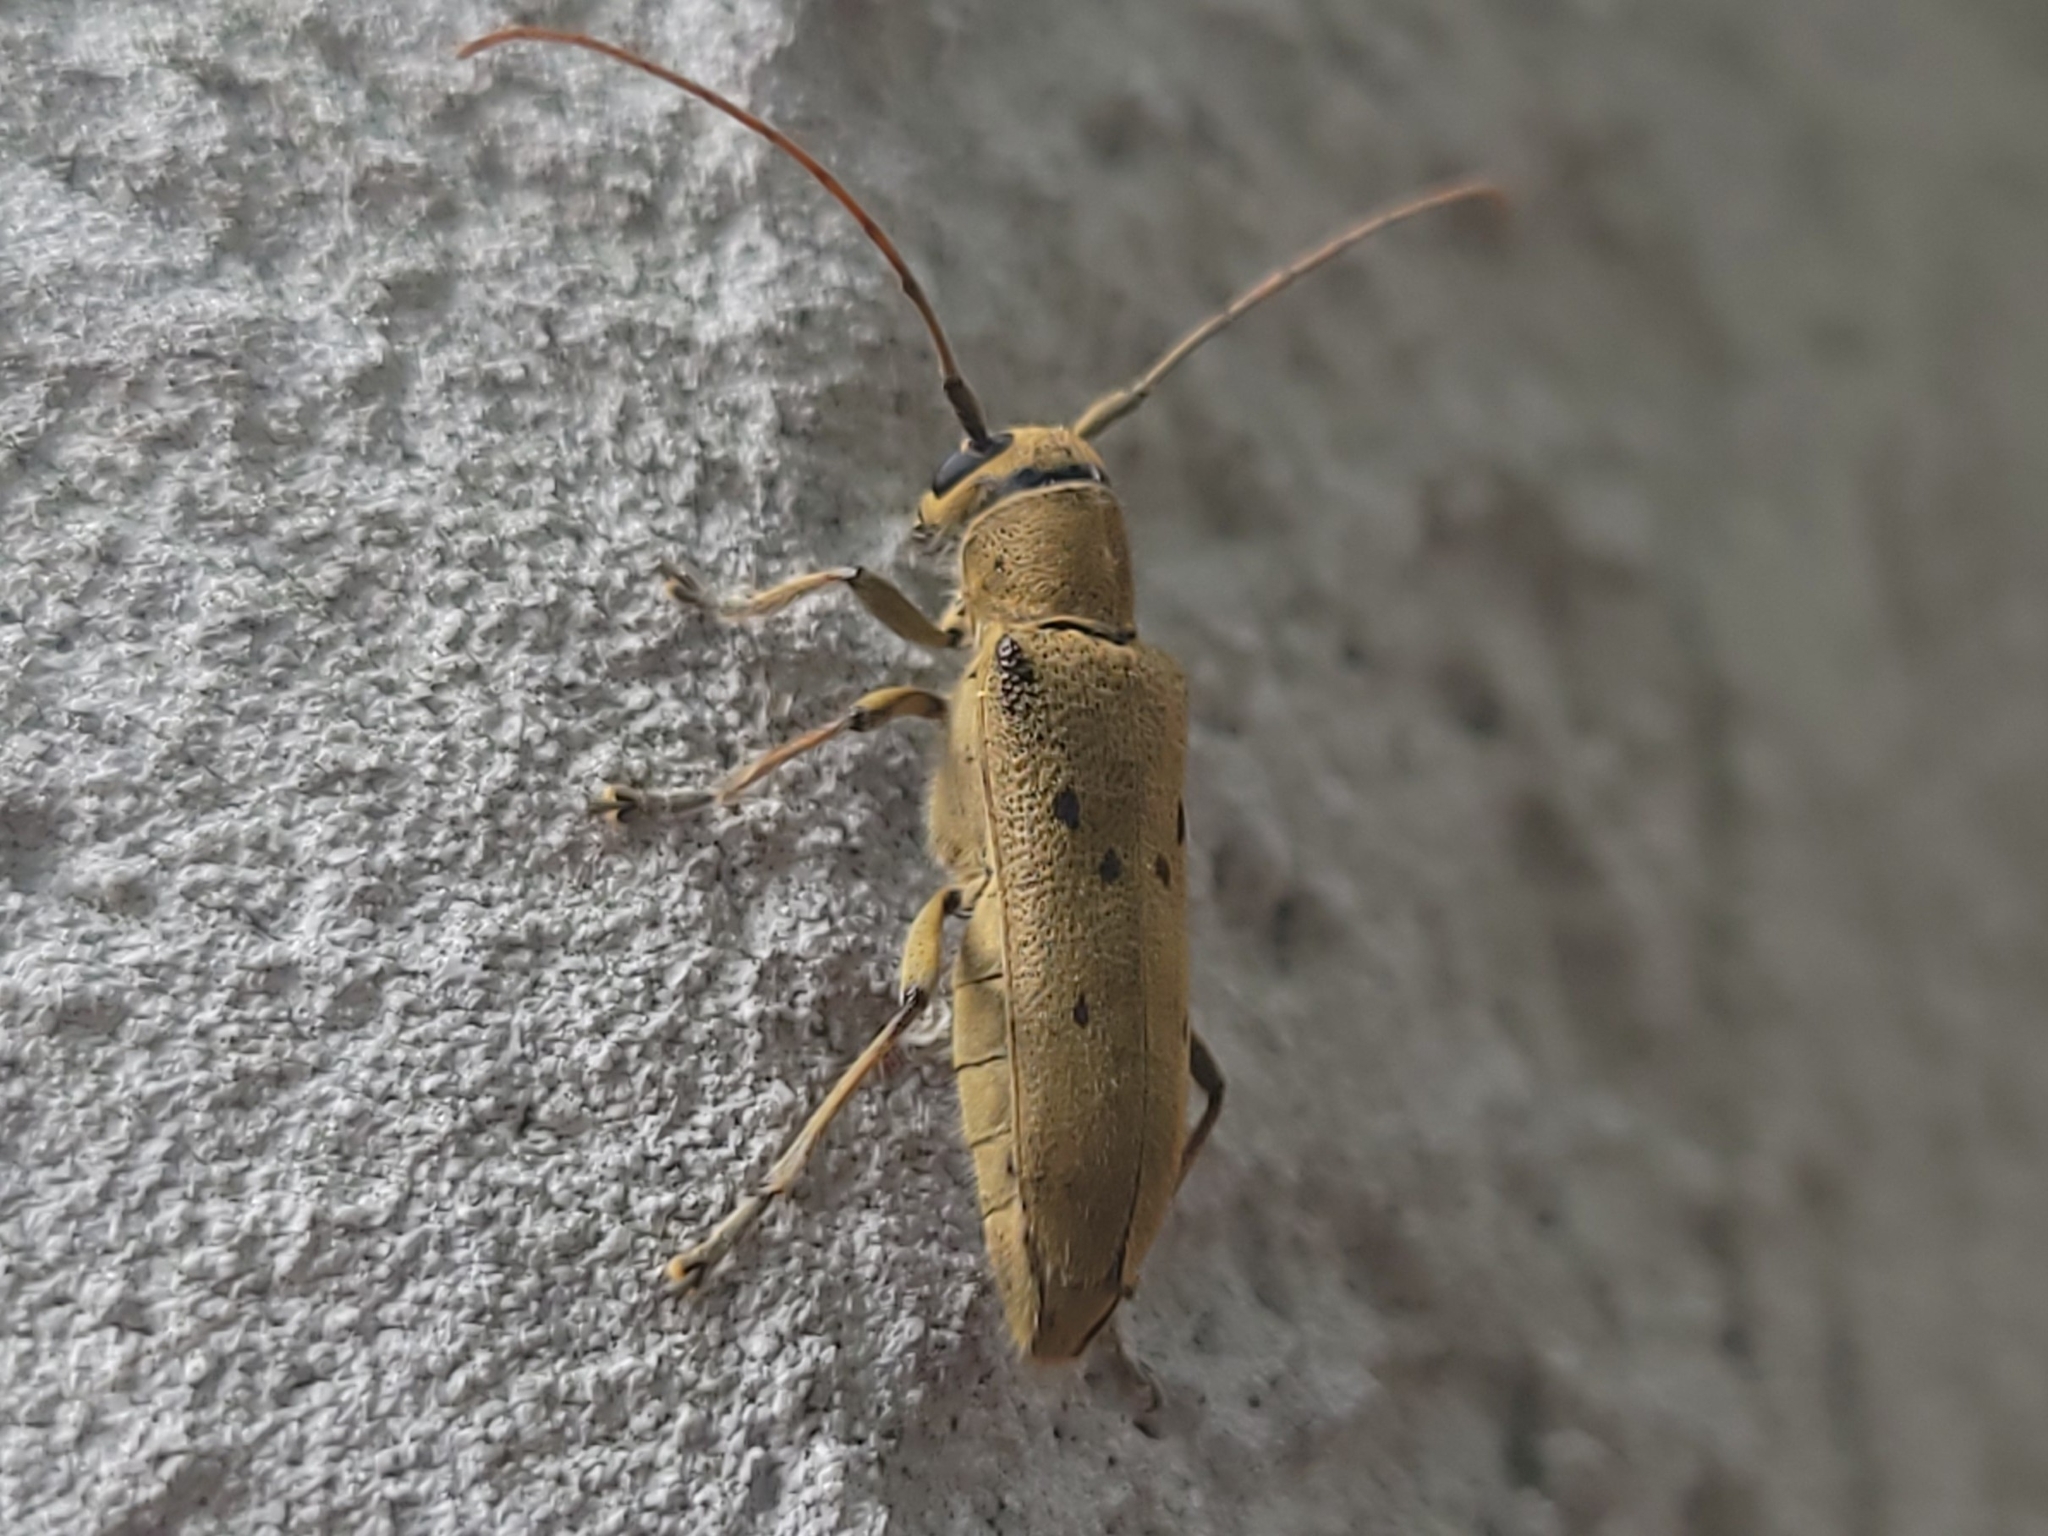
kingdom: Animalia
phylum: Arthropoda
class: Insecta
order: Coleoptera
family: Cerambycidae
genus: Saperda
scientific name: Saperda vestita
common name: Linden borer
